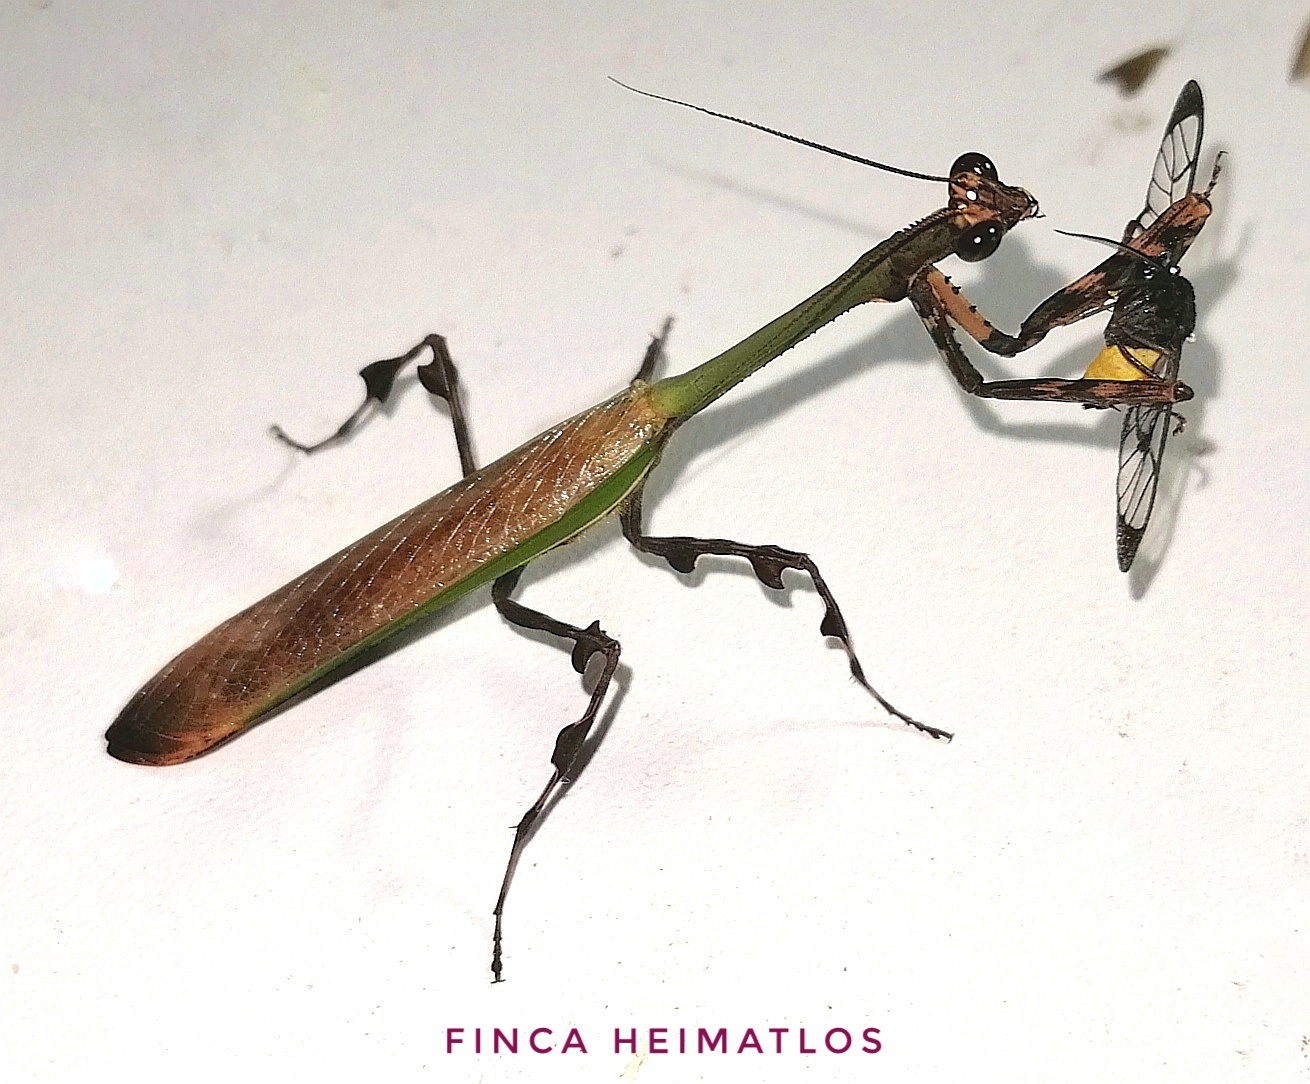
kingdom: Animalia
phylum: Arthropoda
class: Insecta
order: Mantodea
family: Mantidae
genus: Vates
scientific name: Vates weyrauchi
